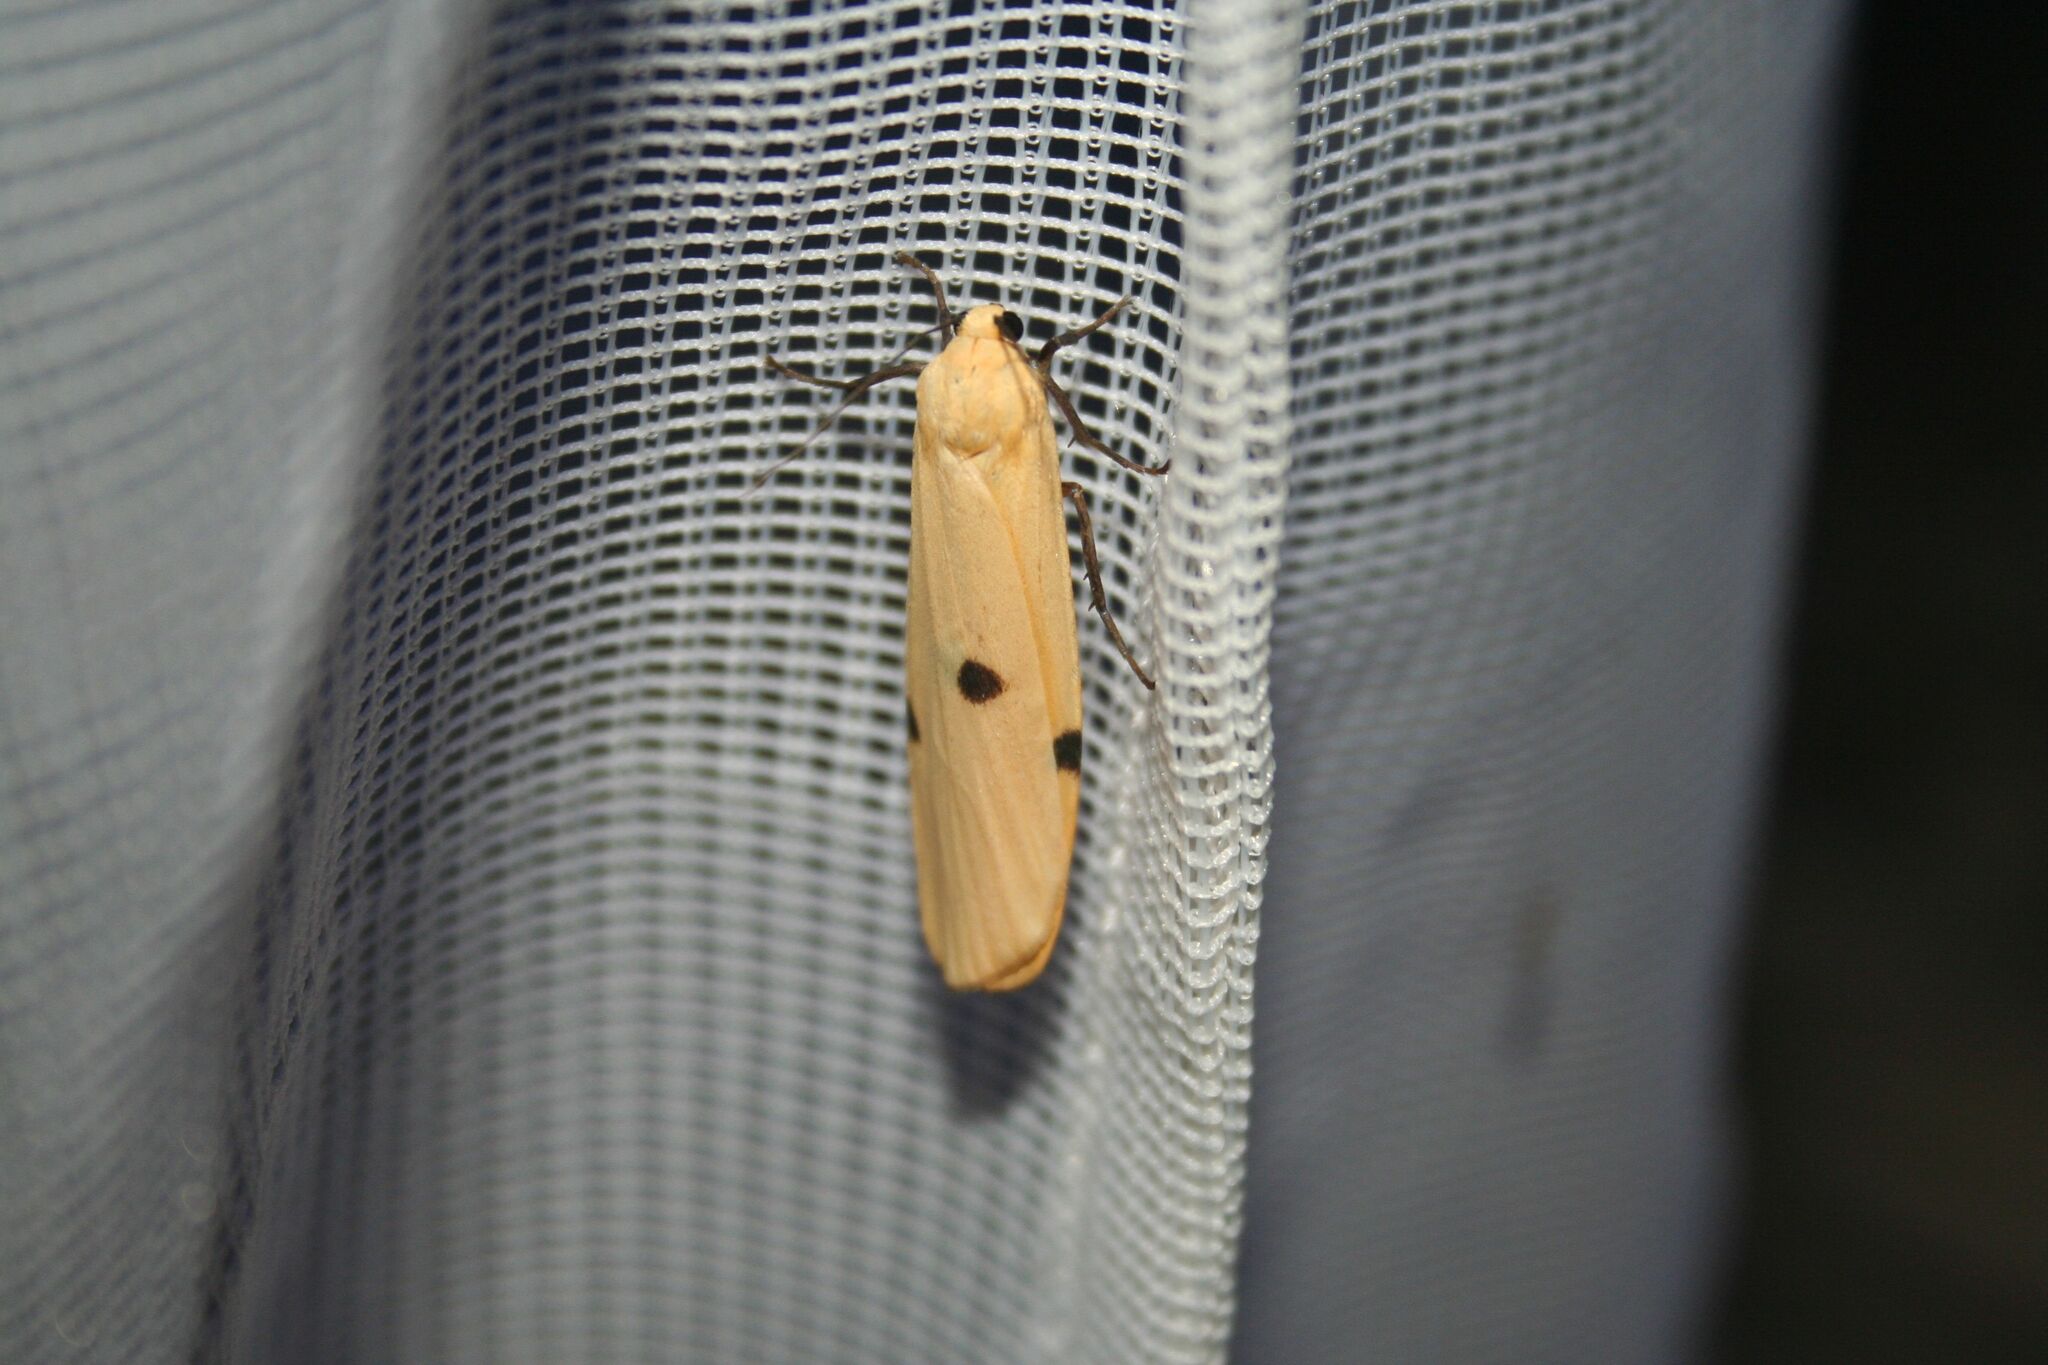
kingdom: Animalia
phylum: Arthropoda
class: Insecta
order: Lepidoptera
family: Erebidae
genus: Lithosia
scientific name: Lithosia quadra
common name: Four-spotted footman
